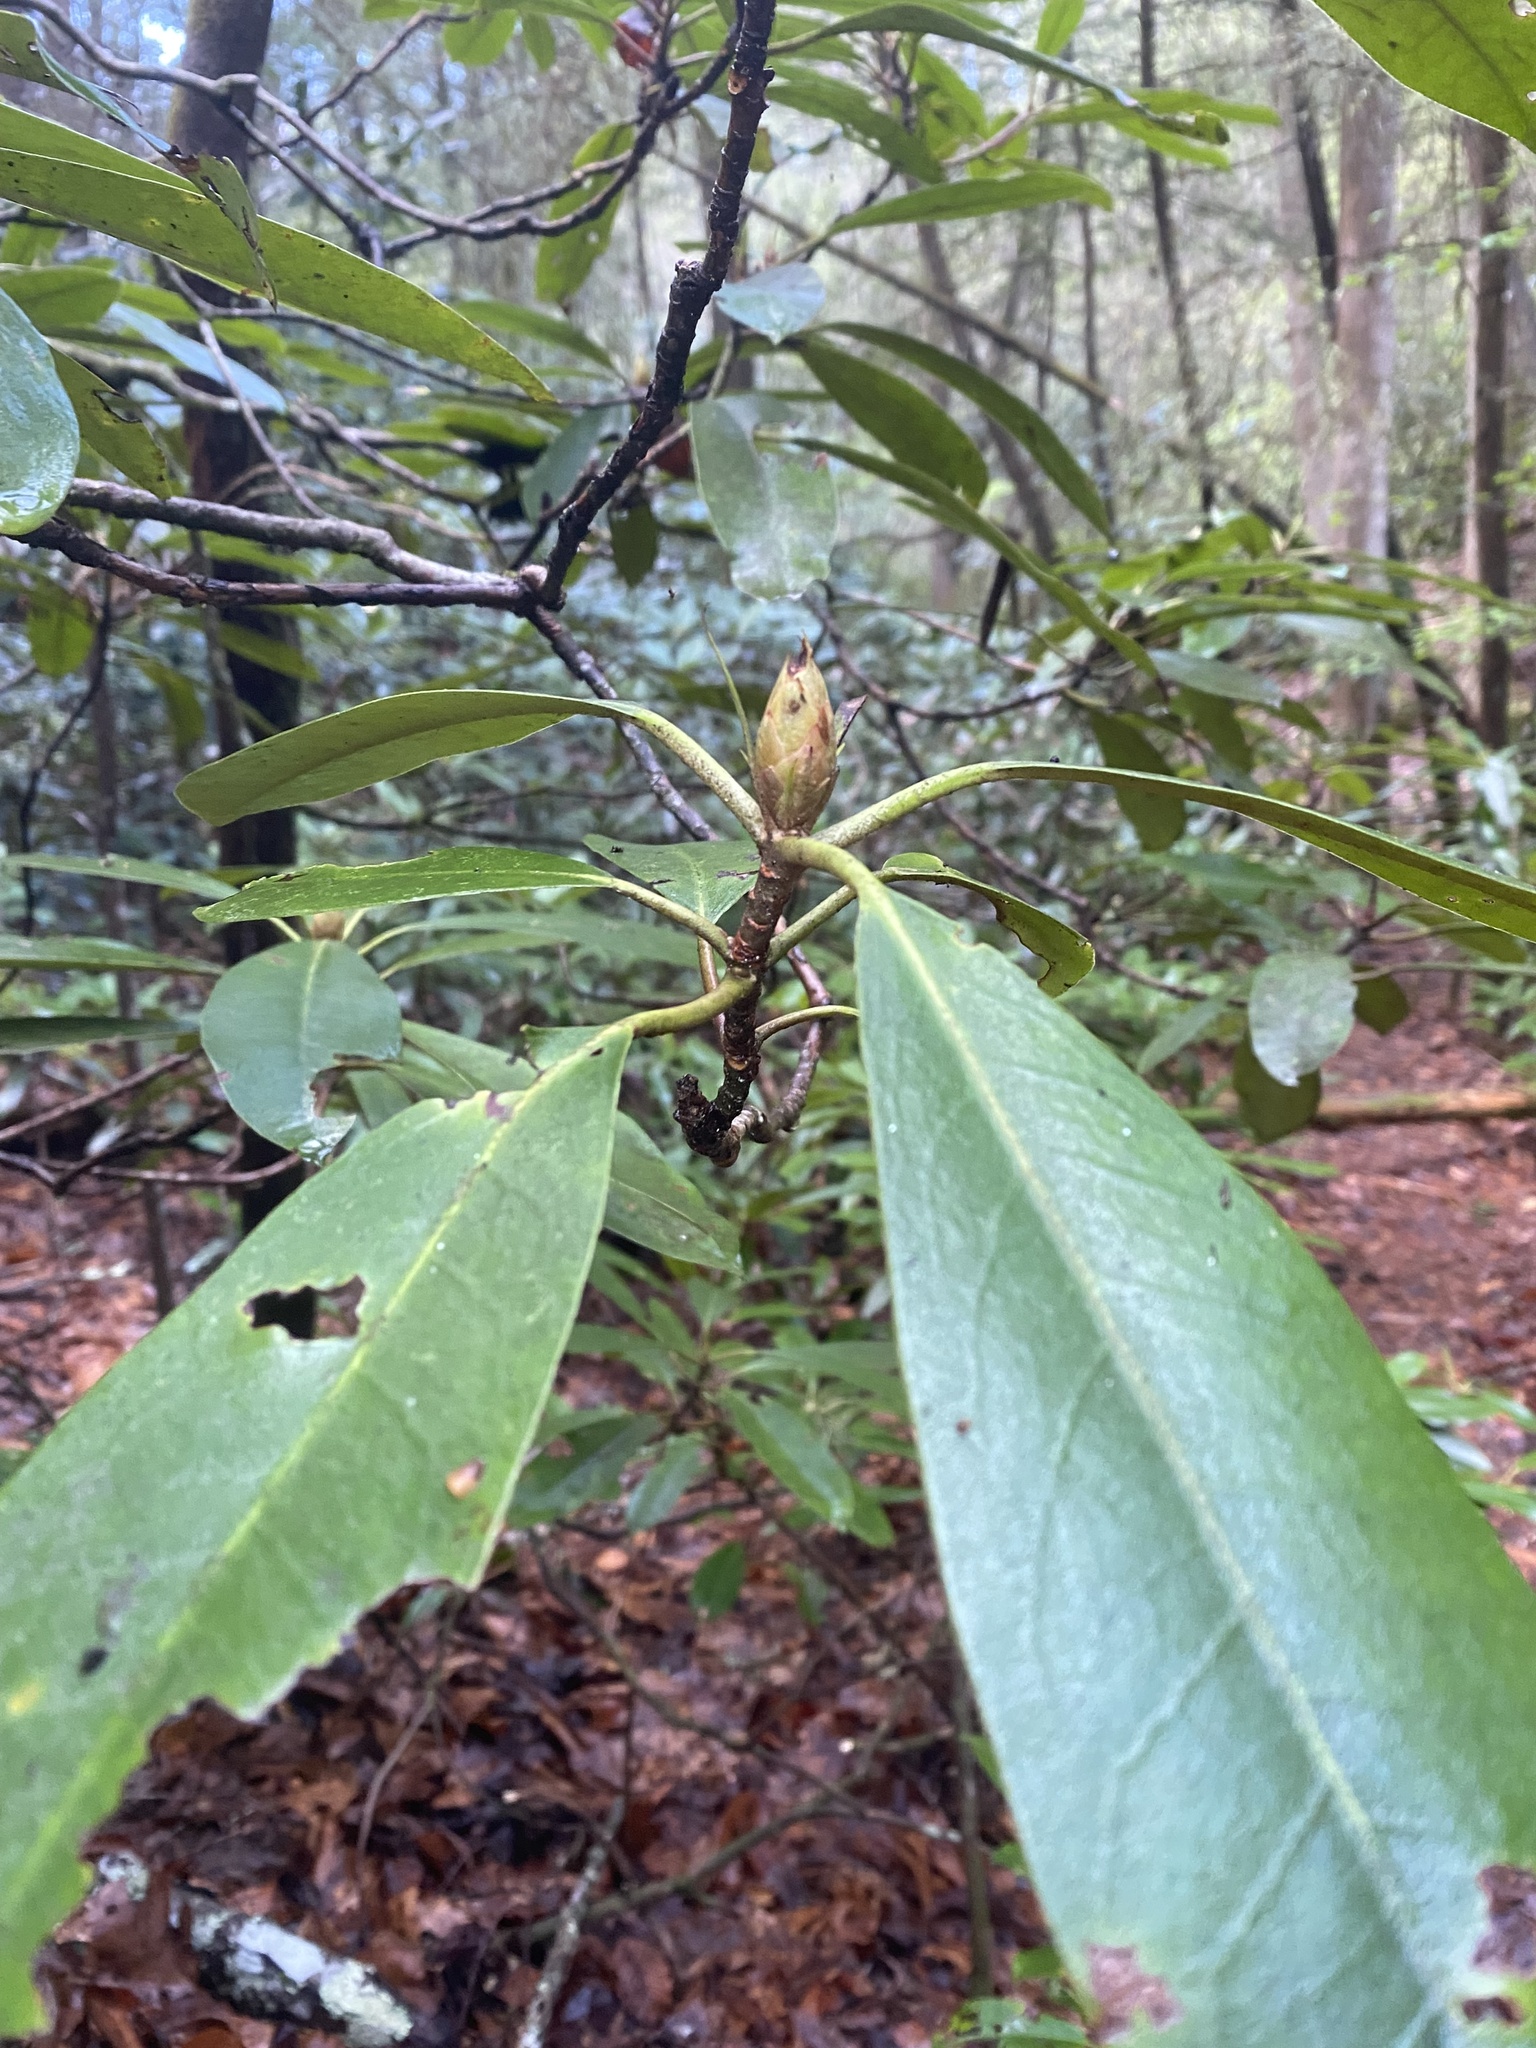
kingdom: Plantae
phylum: Tracheophyta
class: Magnoliopsida
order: Ericales
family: Ericaceae
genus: Rhododendron
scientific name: Rhododendron maximum
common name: Great rhododendron
